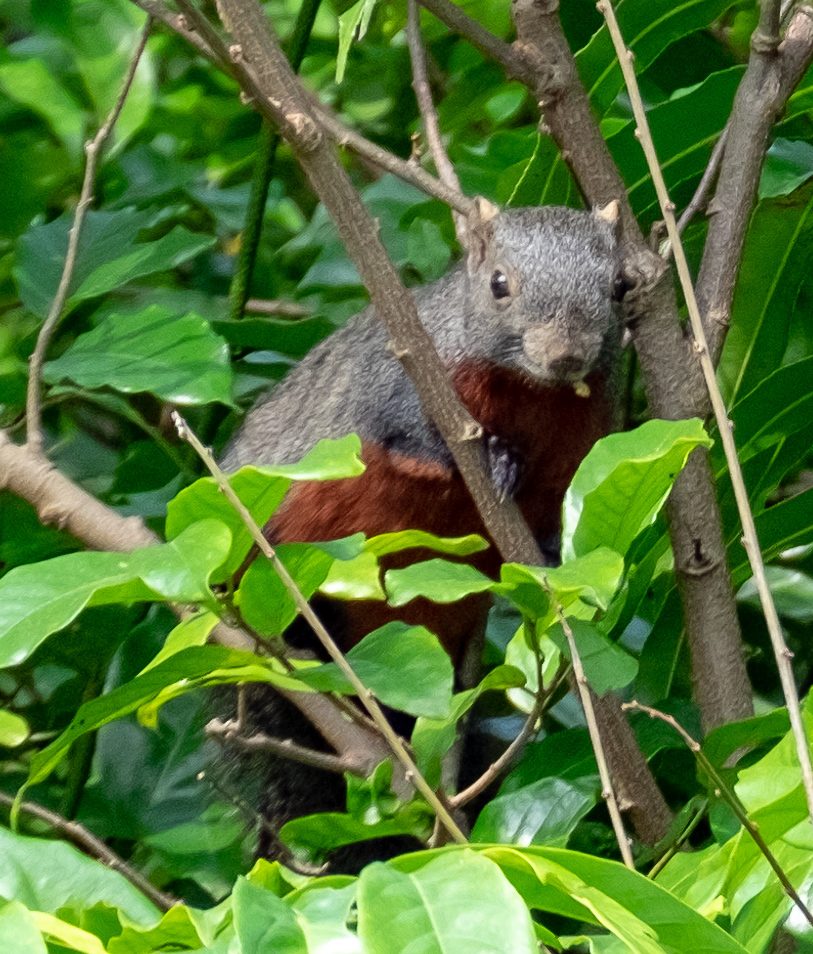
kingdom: Animalia
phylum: Chordata
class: Mammalia
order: Rodentia
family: Sciuridae
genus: Callosciurus
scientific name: Callosciurus erythraeus
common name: Pallas's squirrel
